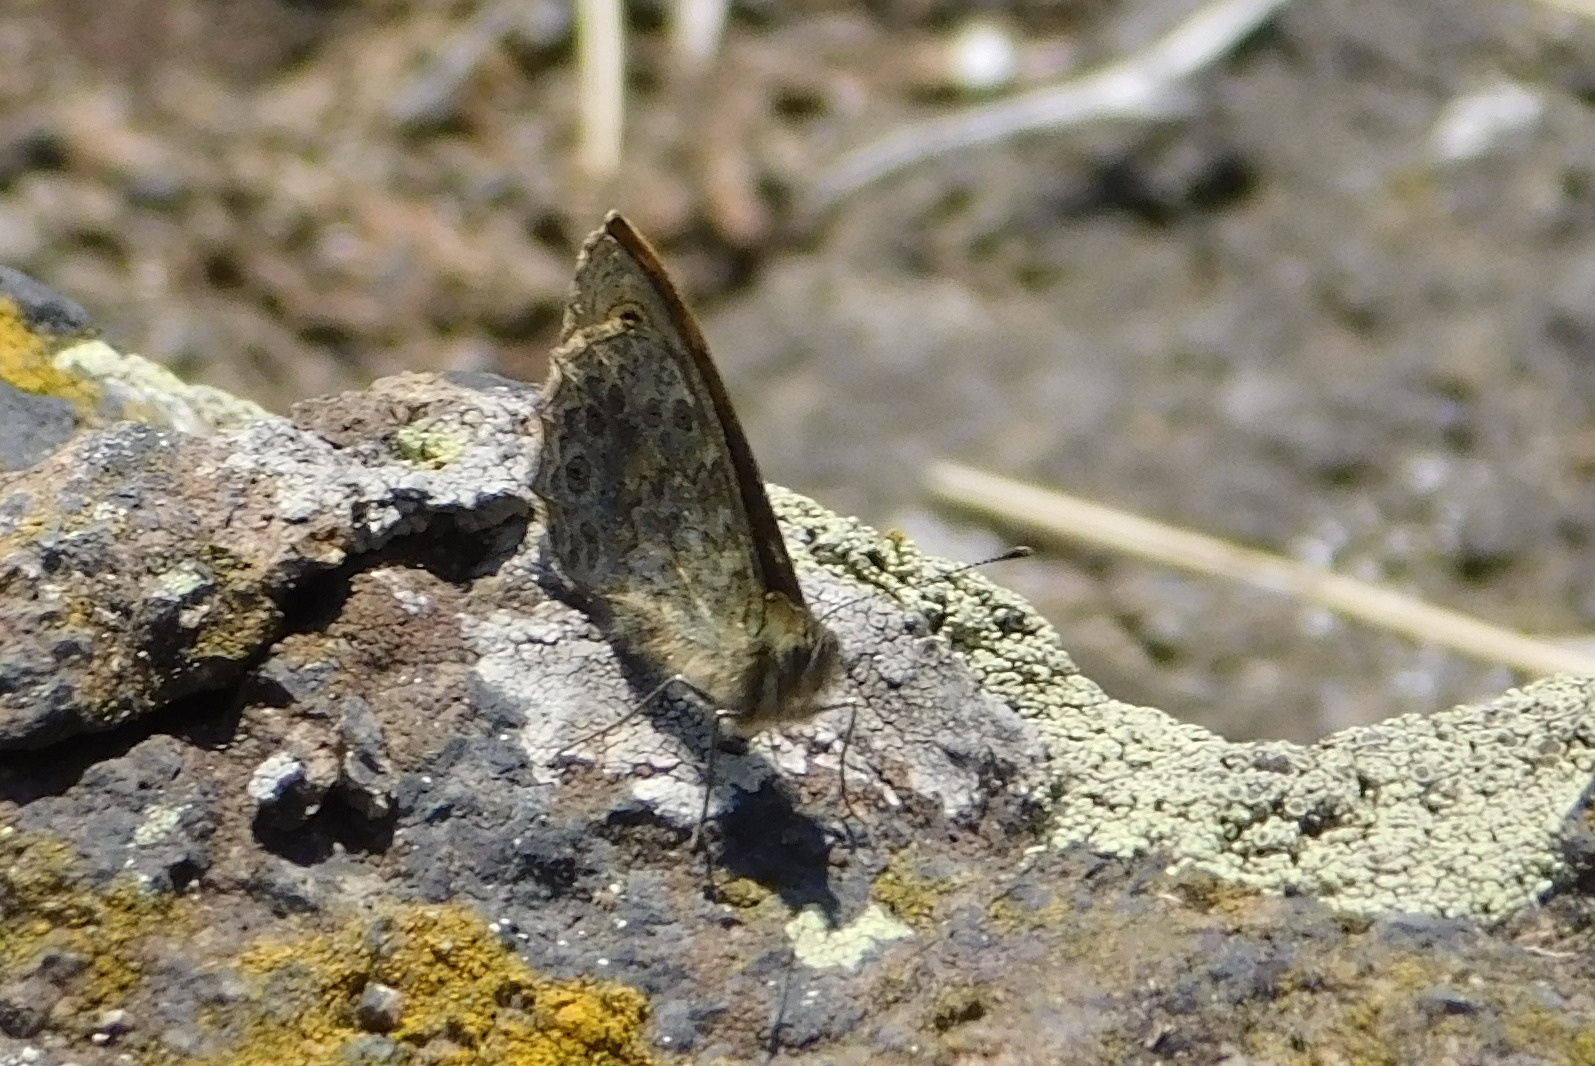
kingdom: Animalia
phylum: Arthropoda
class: Insecta
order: Lepidoptera
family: Nymphalidae
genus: Pararge
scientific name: Pararge Lasiommata megera
